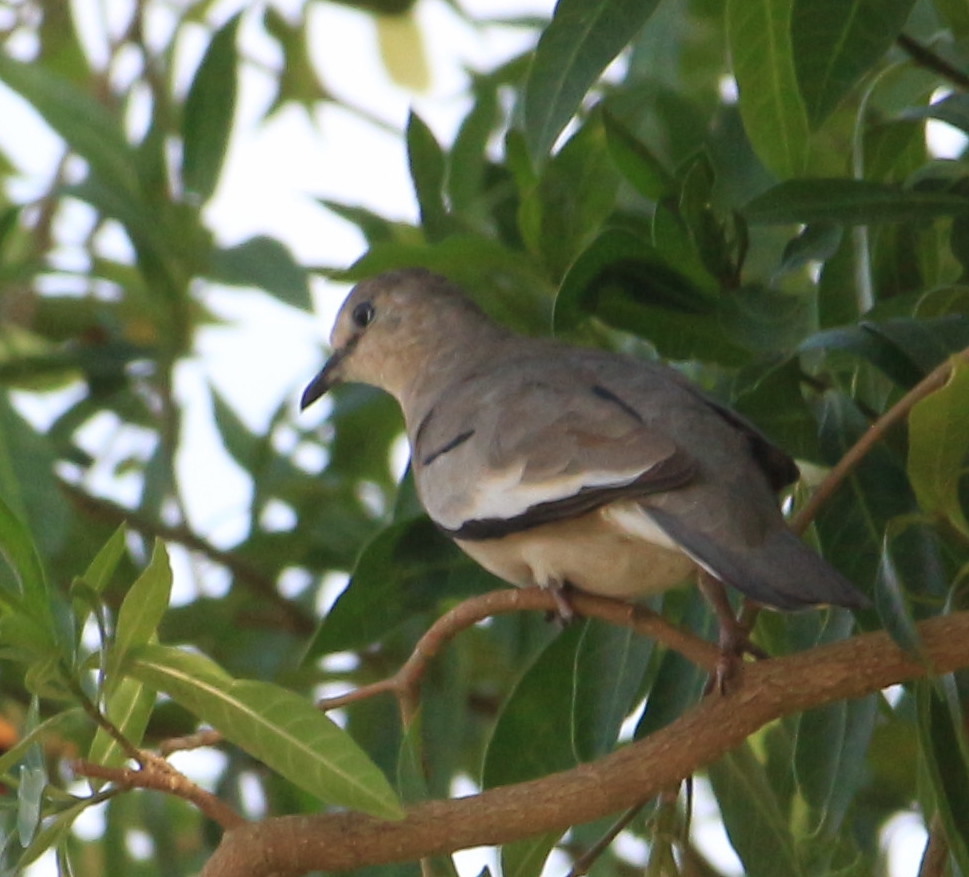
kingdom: Animalia
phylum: Chordata
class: Aves
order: Columbiformes
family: Columbidae
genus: Columbina
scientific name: Columbina picui
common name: Picui ground dove
